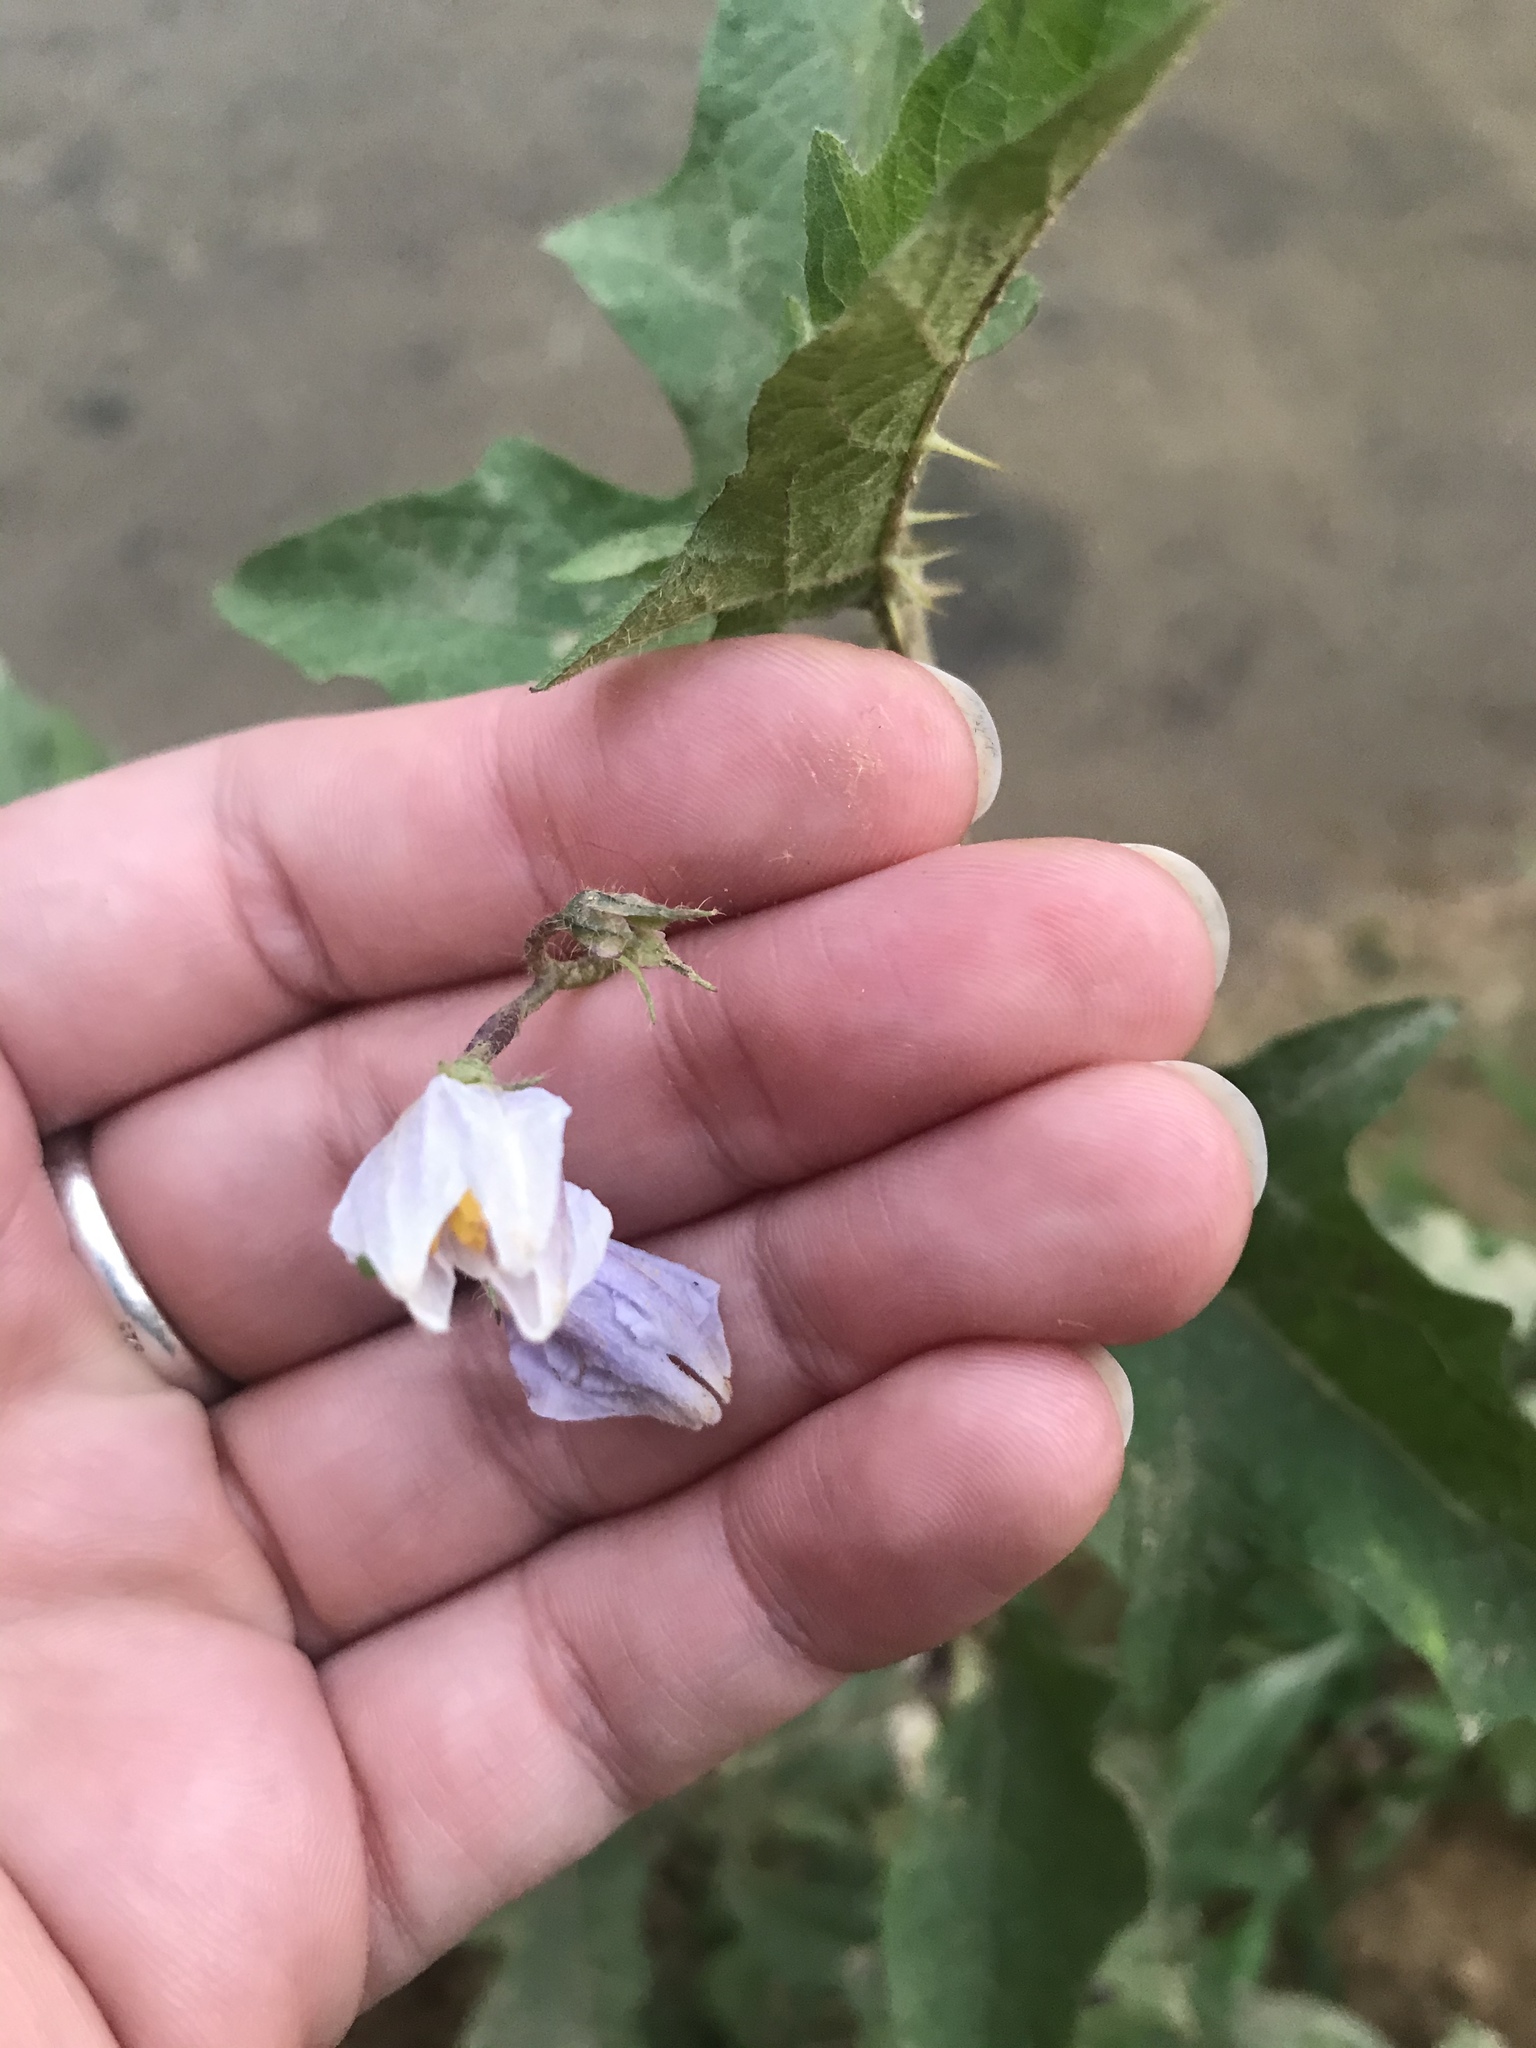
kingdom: Plantae
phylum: Tracheophyta
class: Magnoliopsida
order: Solanales
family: Solanaceae
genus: Solanum
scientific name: Solanum carolinense
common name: Horse-nettle
